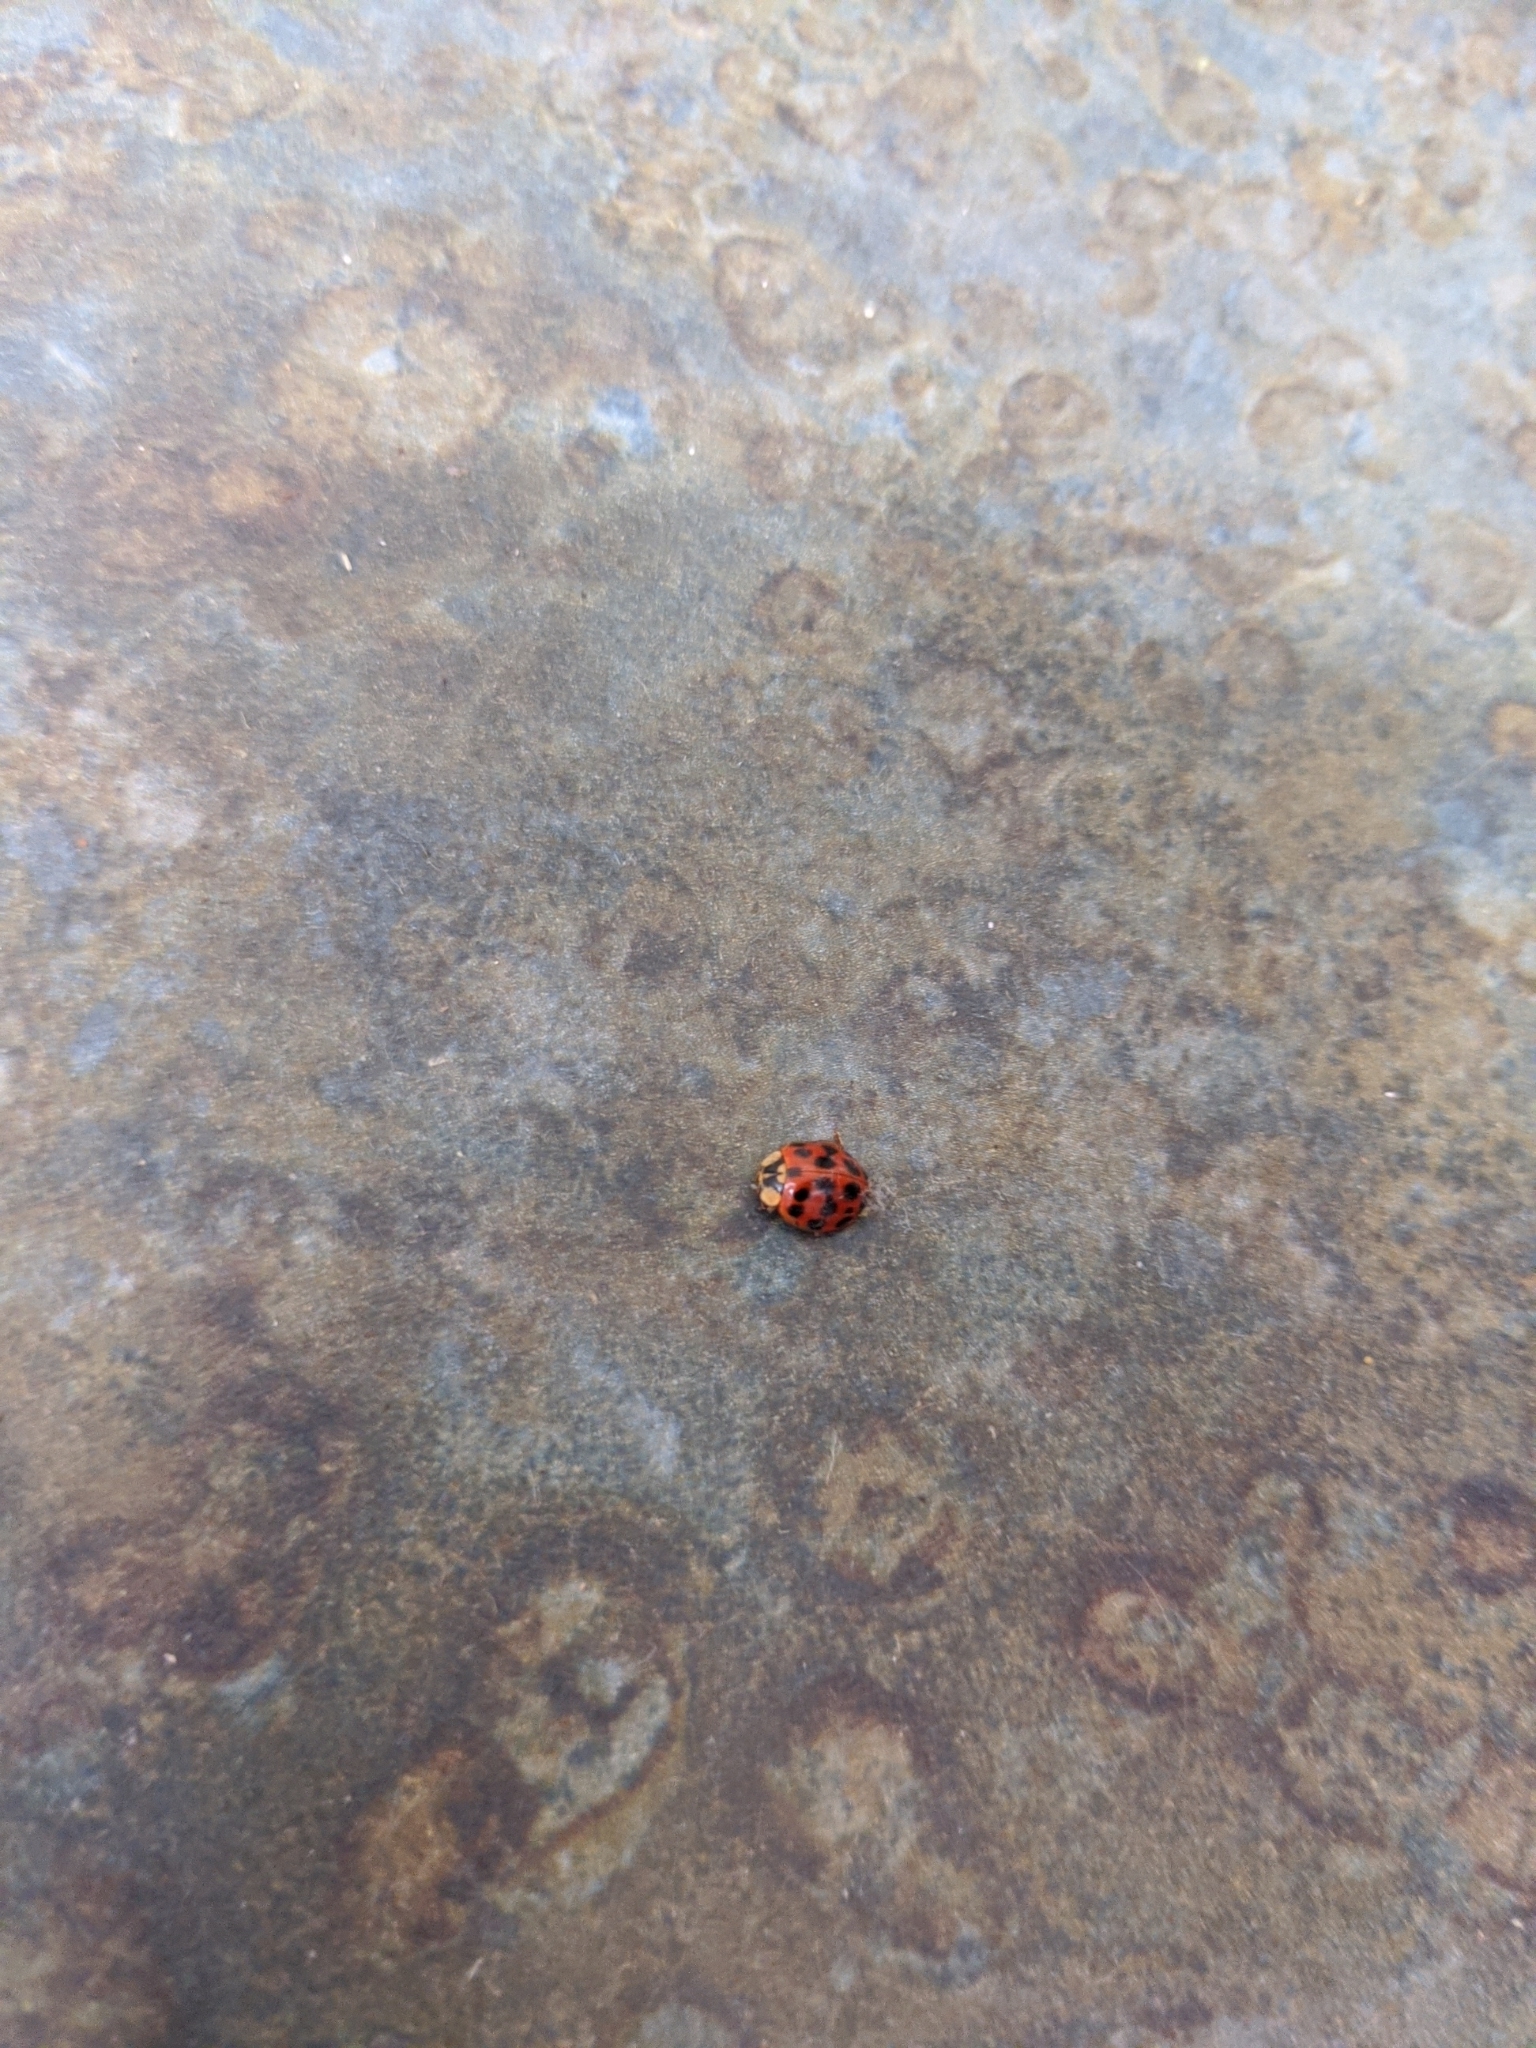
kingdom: Animalia
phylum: Arthropoda
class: Insecta
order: Coleoptera
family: Coccinellidae
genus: Harmonia
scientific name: Harmonia axyridis
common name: Harlequin ladybird
